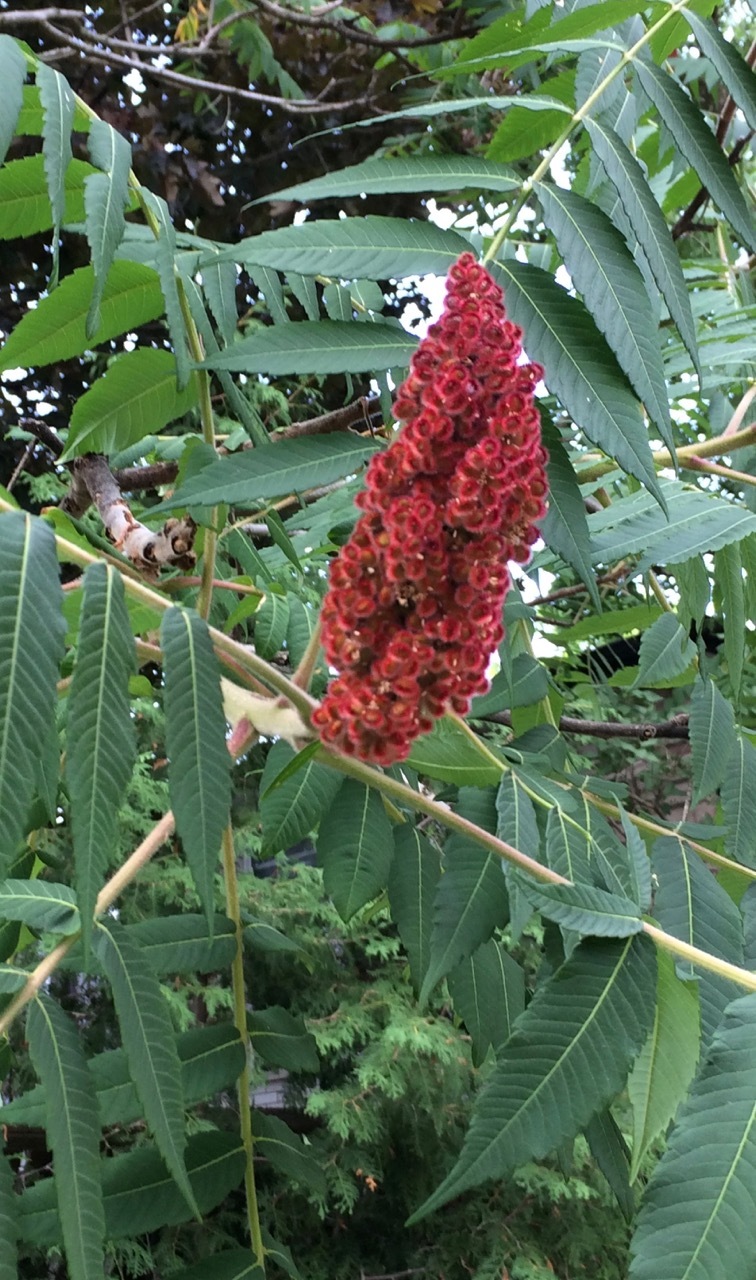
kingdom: Plantae
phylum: Tracheophyta
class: Magnoliopsida
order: Sapindales
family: Anacardiaceae
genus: Rhus
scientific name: Rhus typhina
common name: Staghorn sumac
